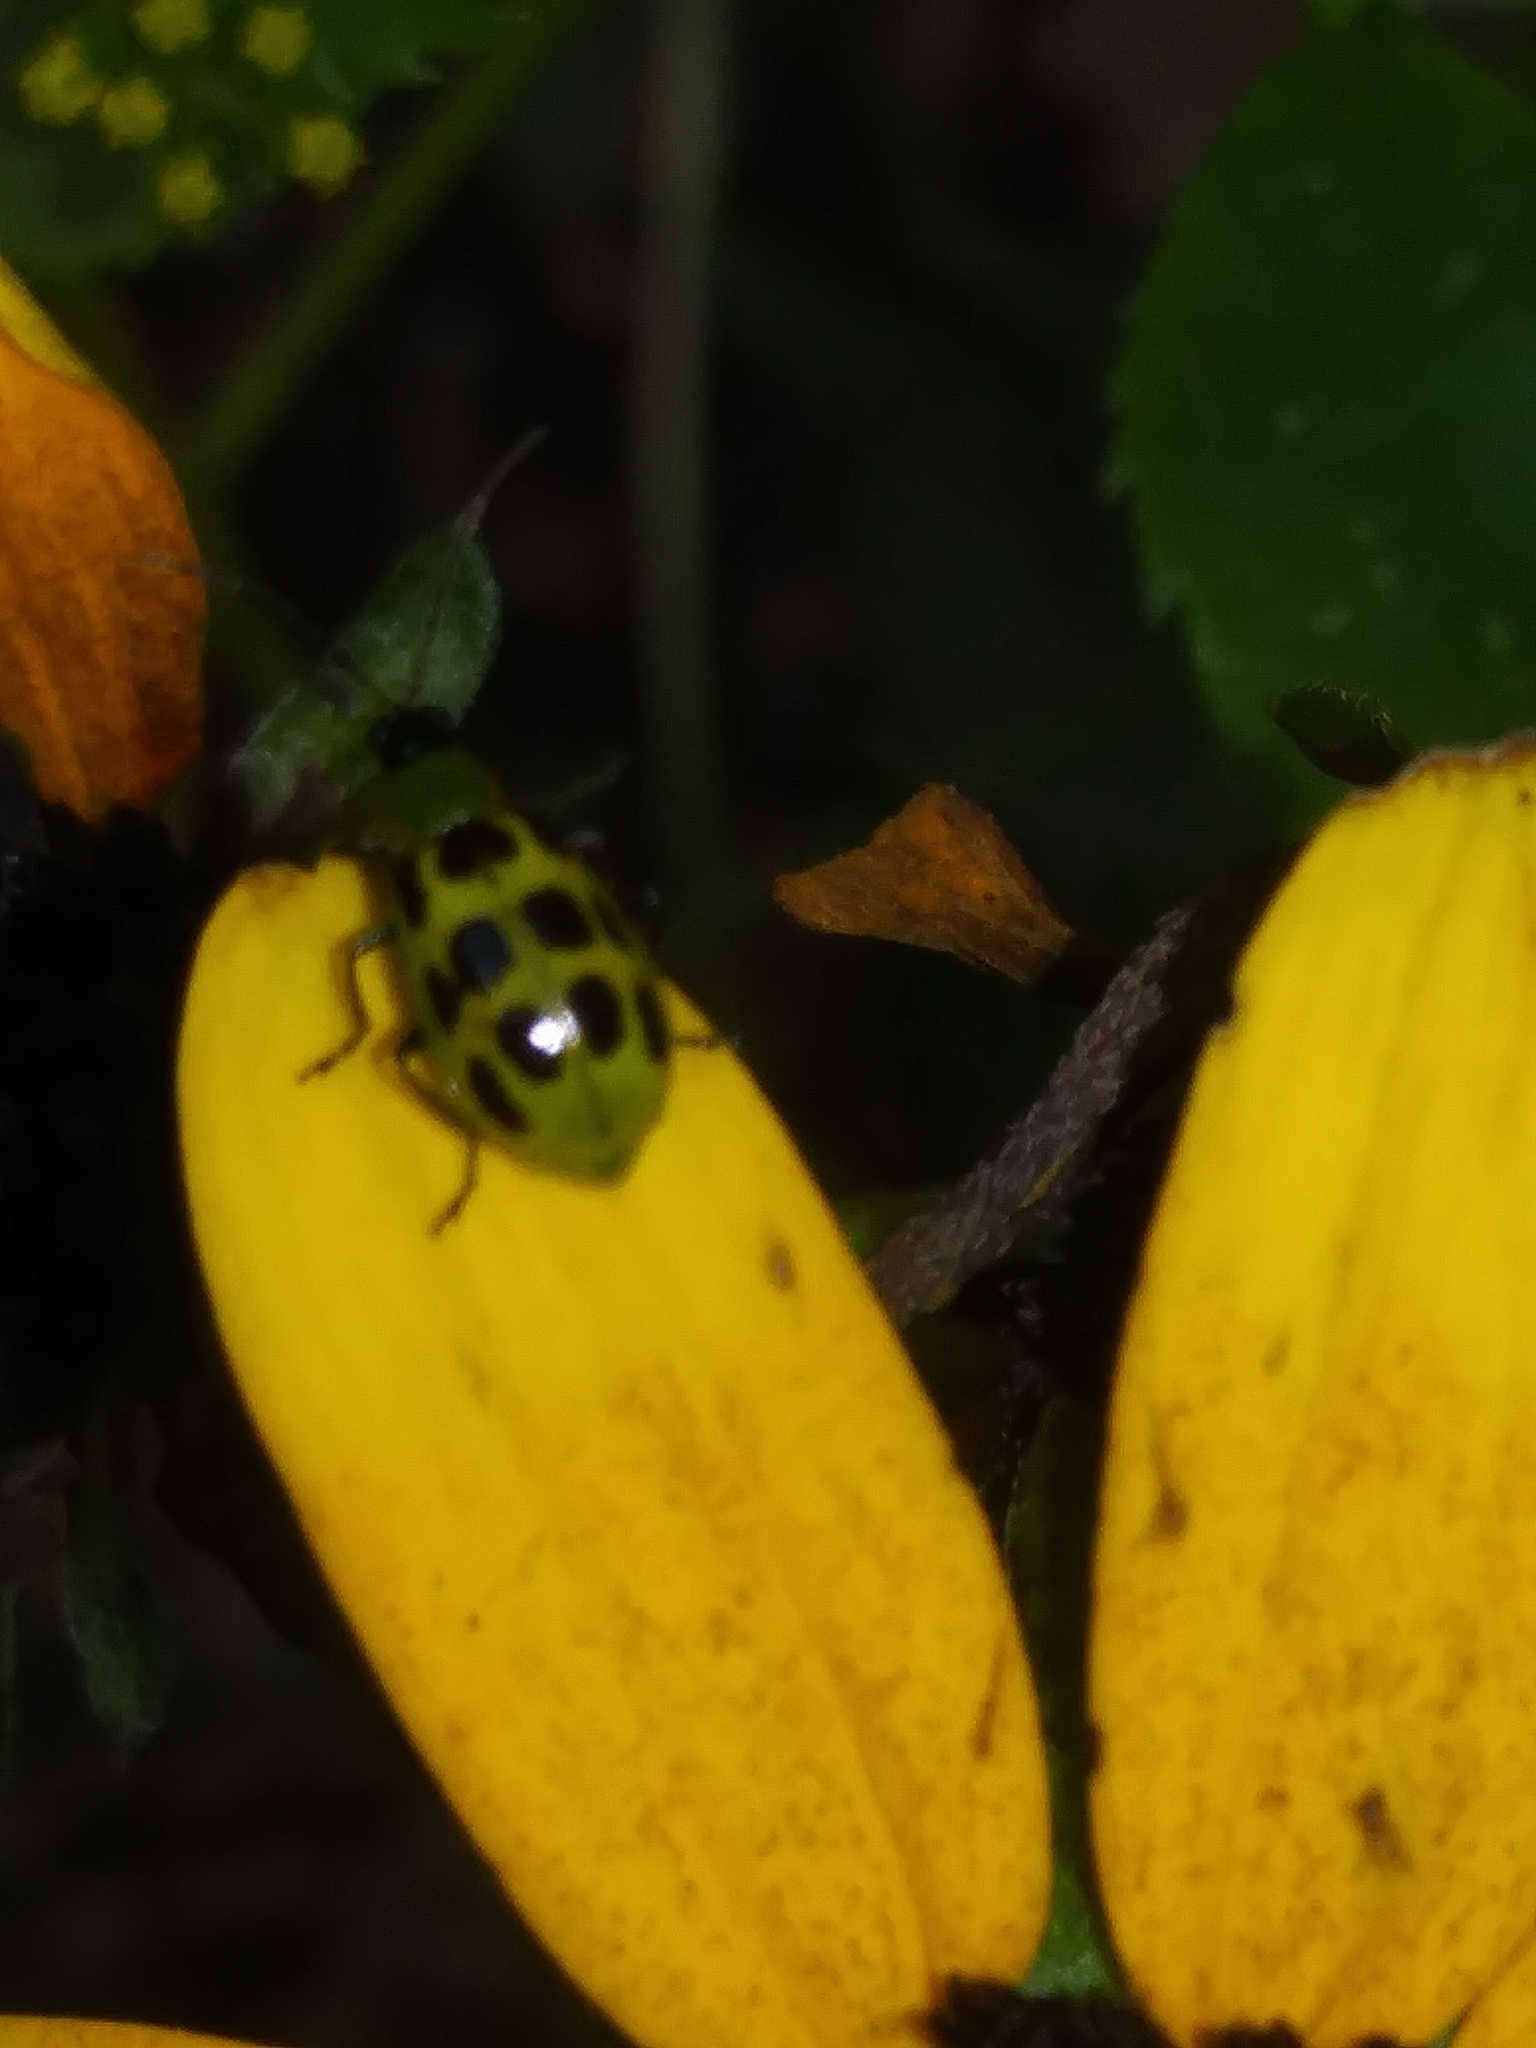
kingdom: Animalia
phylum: Arthropoda
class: Insecta
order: Coleoptera
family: Chrysomelidae
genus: Diabrotica
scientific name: Diabrotica undecimpunctata
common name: Spotted cucumber beetle
